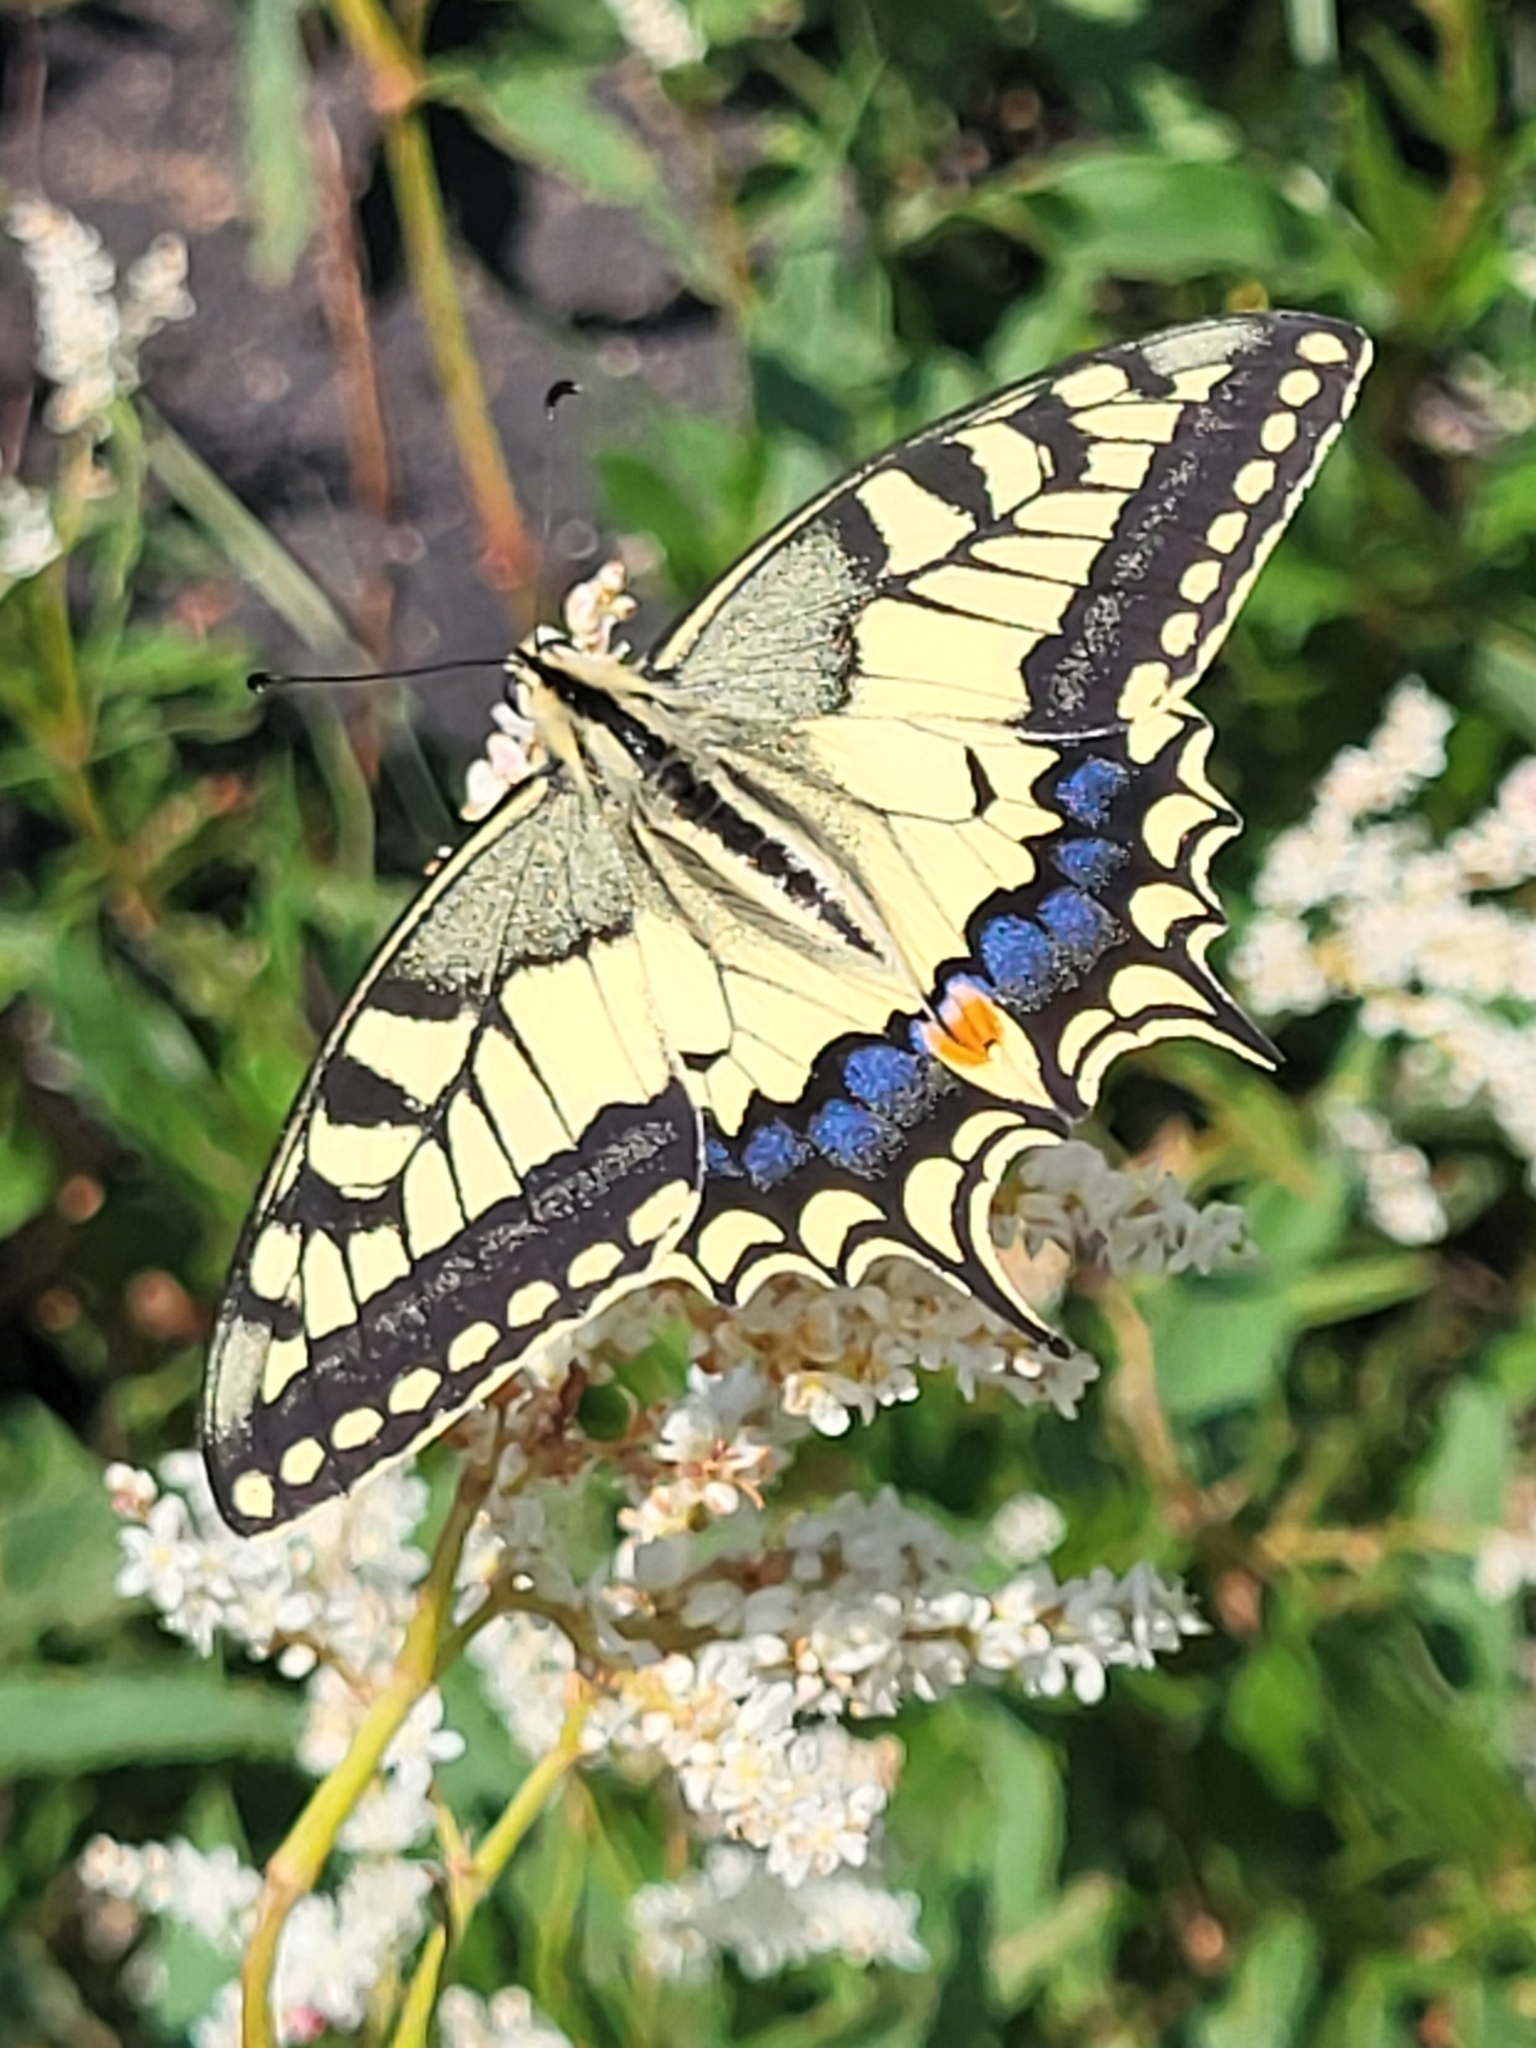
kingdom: Animalia
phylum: Arthropoda
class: Insecta
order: Lepidoptera
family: Papilionidae
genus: Papilio
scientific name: Papilio machaon
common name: Swallowtail
